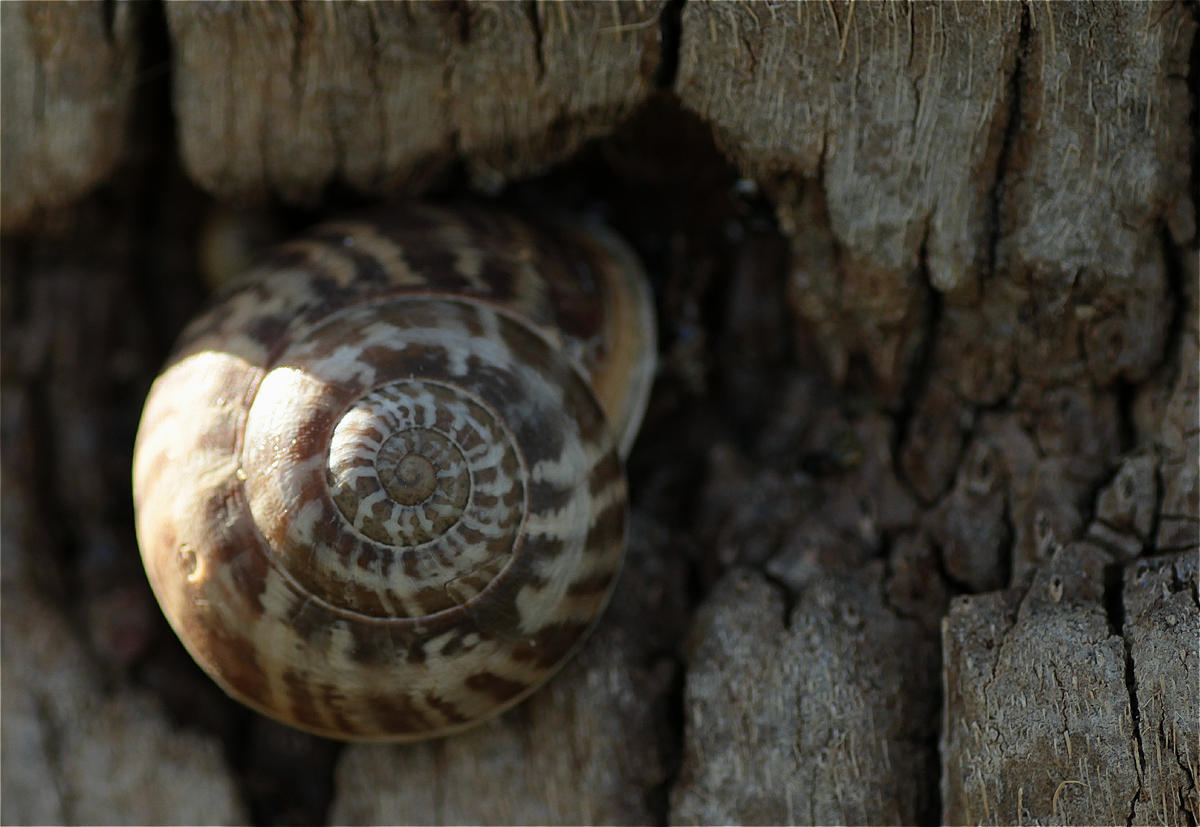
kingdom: Animalia
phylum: Mollusca
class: Gastropoda
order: Stylommatophora
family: Helicidae
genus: Eobania
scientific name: Eobania vermiculata
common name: Chocolateband snail
